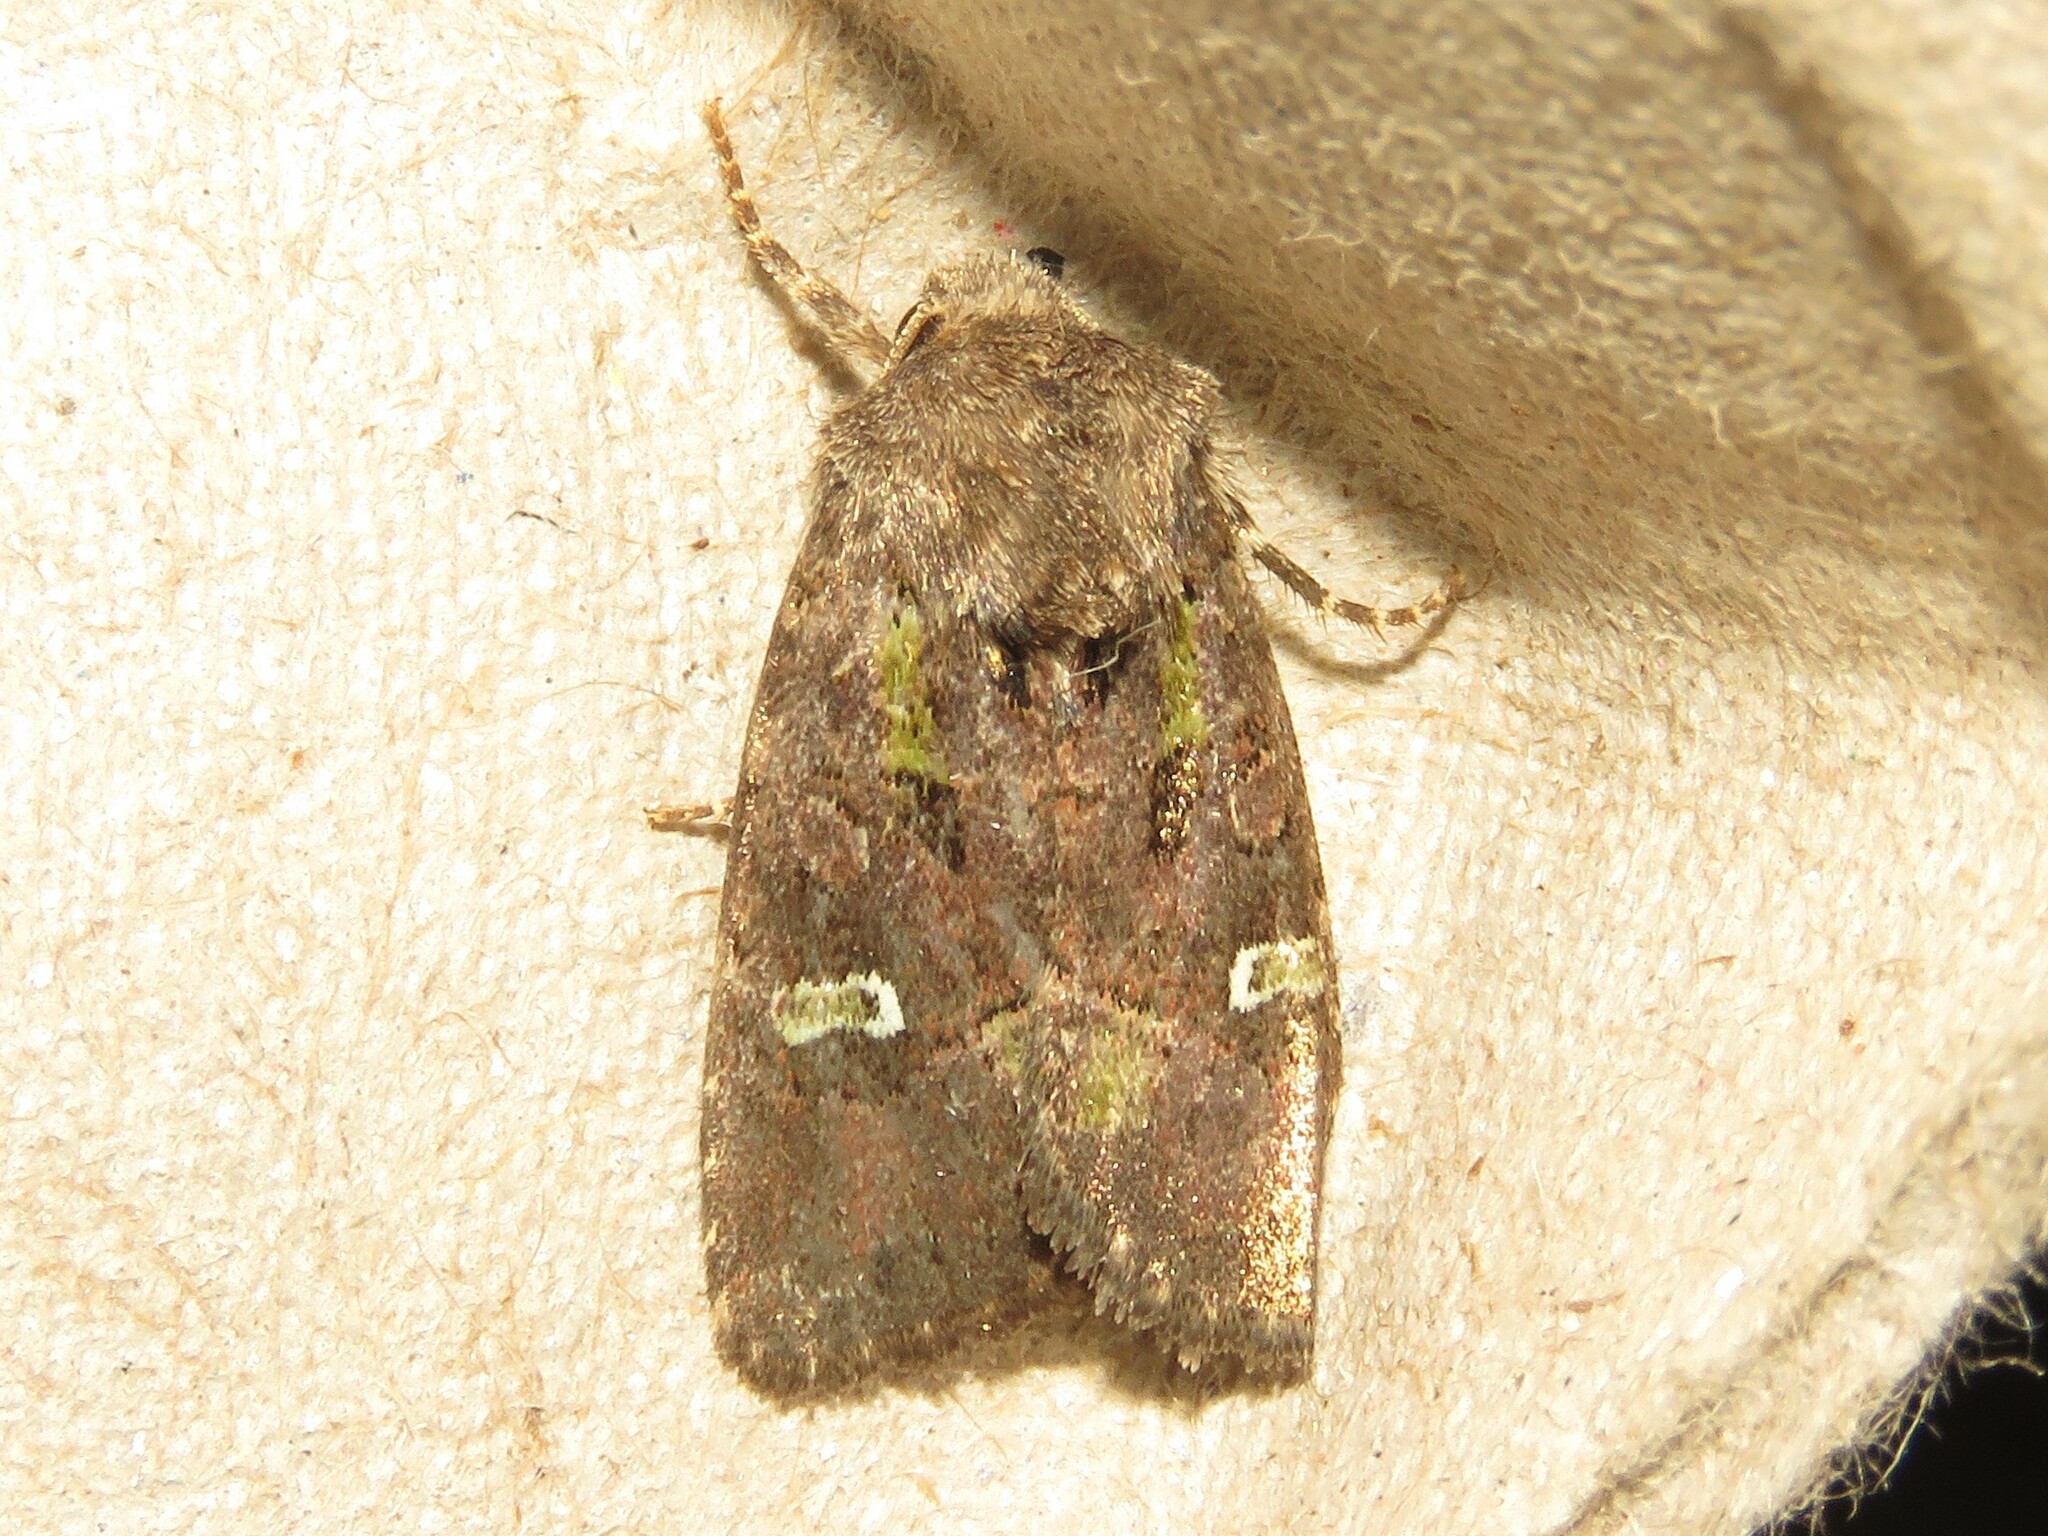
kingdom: Animalia
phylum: Arthropoda
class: Insecta
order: Lepidoptera
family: Noctuidae
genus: Lacinipolia
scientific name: Lacinipolia renigera
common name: Kidney-spotted minor
